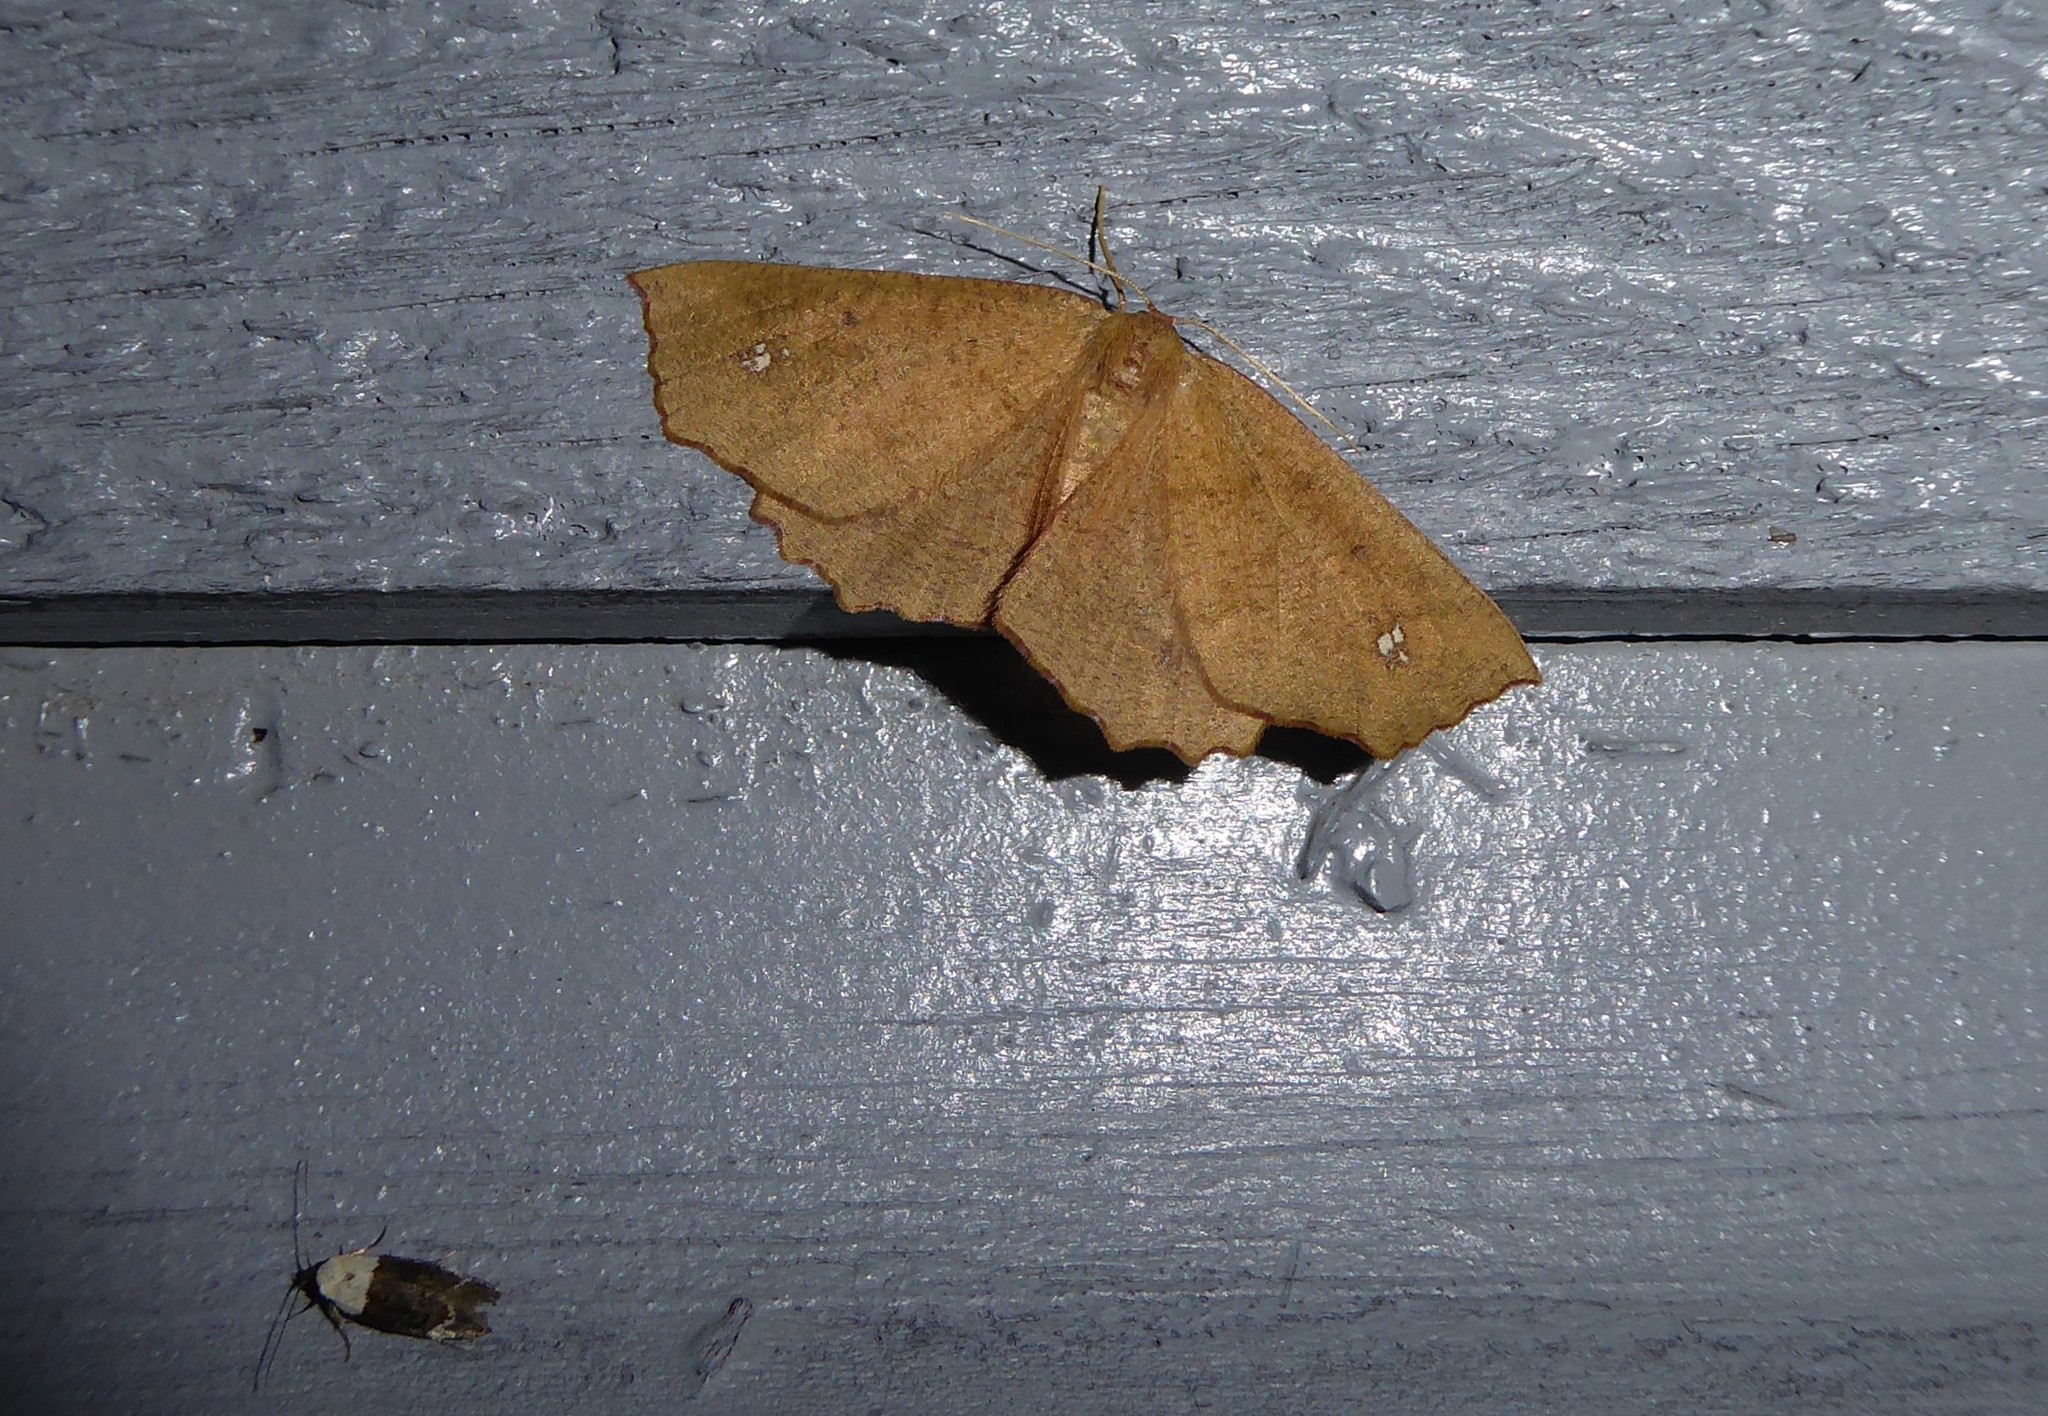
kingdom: Animalia
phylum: Arthropoda
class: Insecta
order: Lepidoptera
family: Geometridae
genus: Xyridacma
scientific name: Xyridacma ustaria
